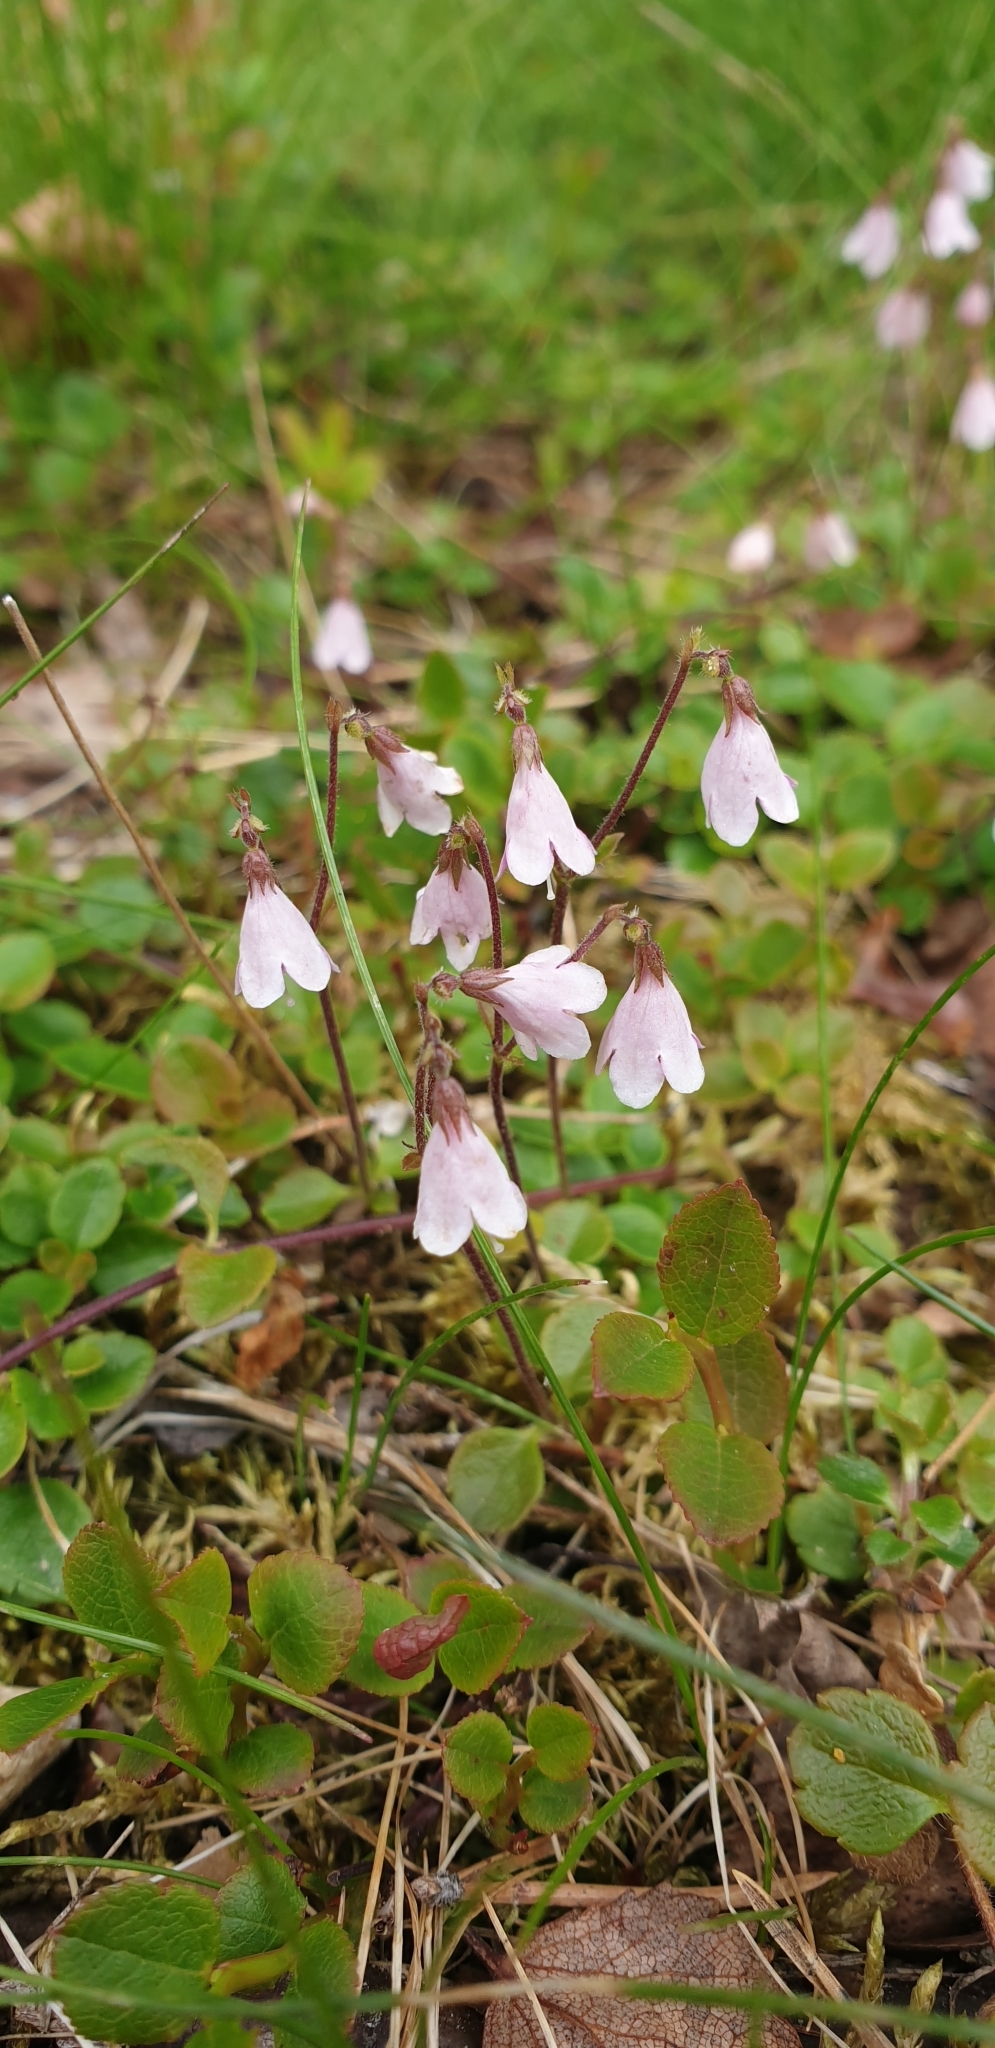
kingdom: Plantae
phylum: Tracheophyta
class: Magnoliopsida
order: Dipsacales
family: Caprifoliaceae
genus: Linnaea
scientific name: Linnaea borealis
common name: Twinflower
